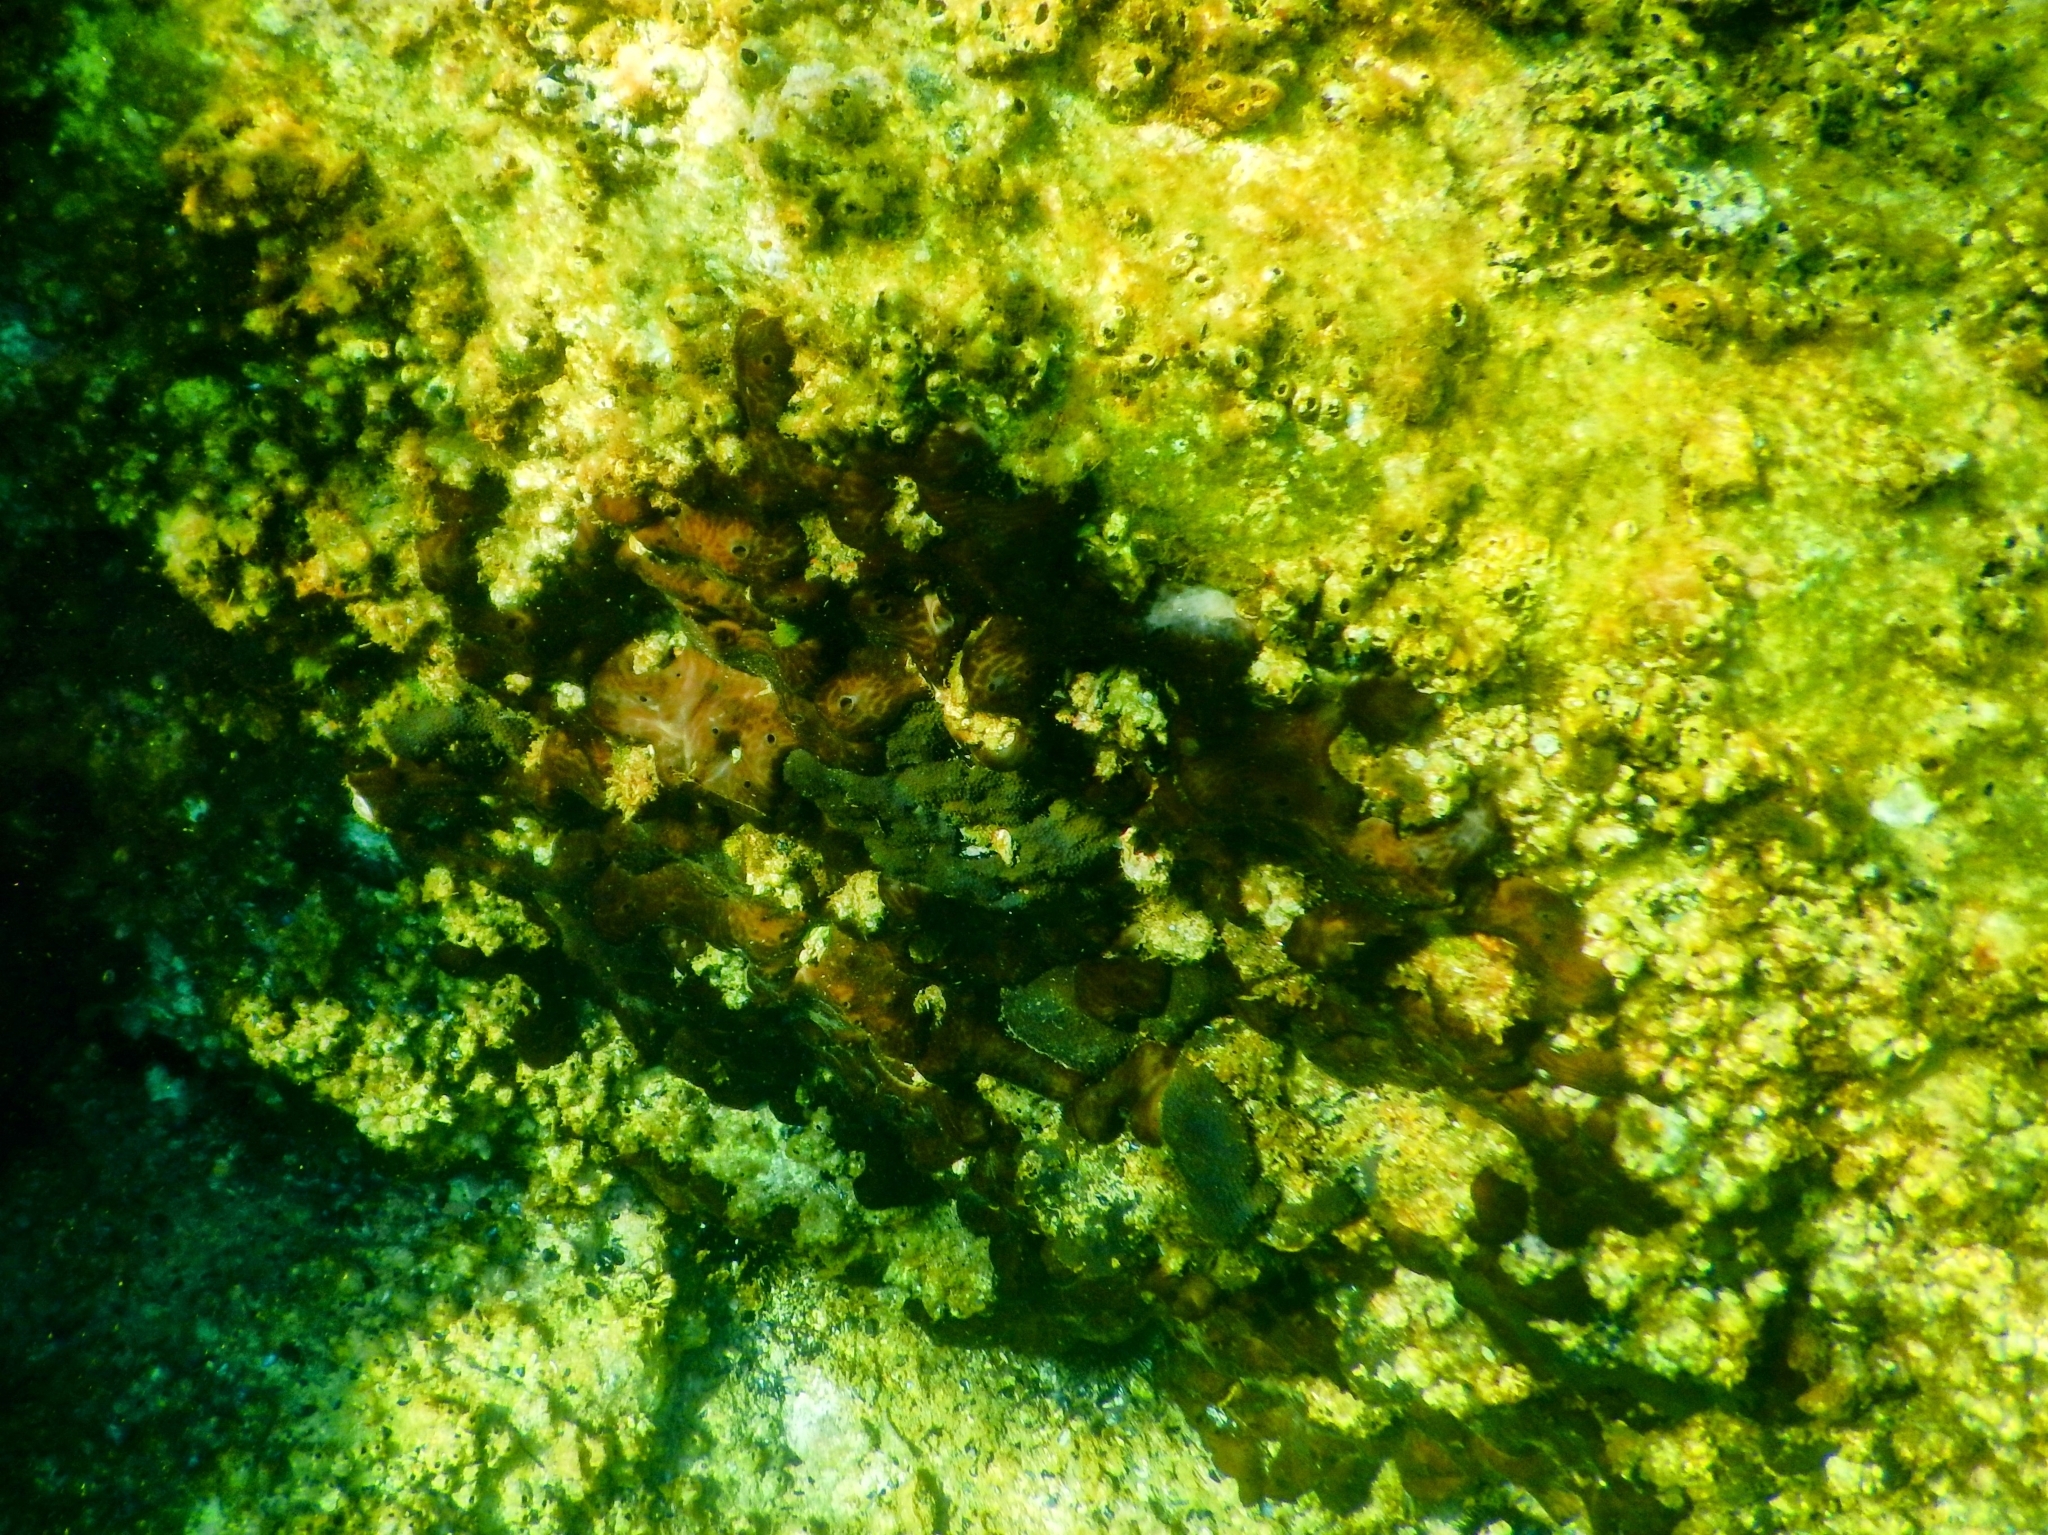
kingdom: Animalia
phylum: Porifera
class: Demospongiae
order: Chondrosiida
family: Chondrosiidae
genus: Chondrosia
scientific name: Chondrosia reniformis
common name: Chicken liver sponge
